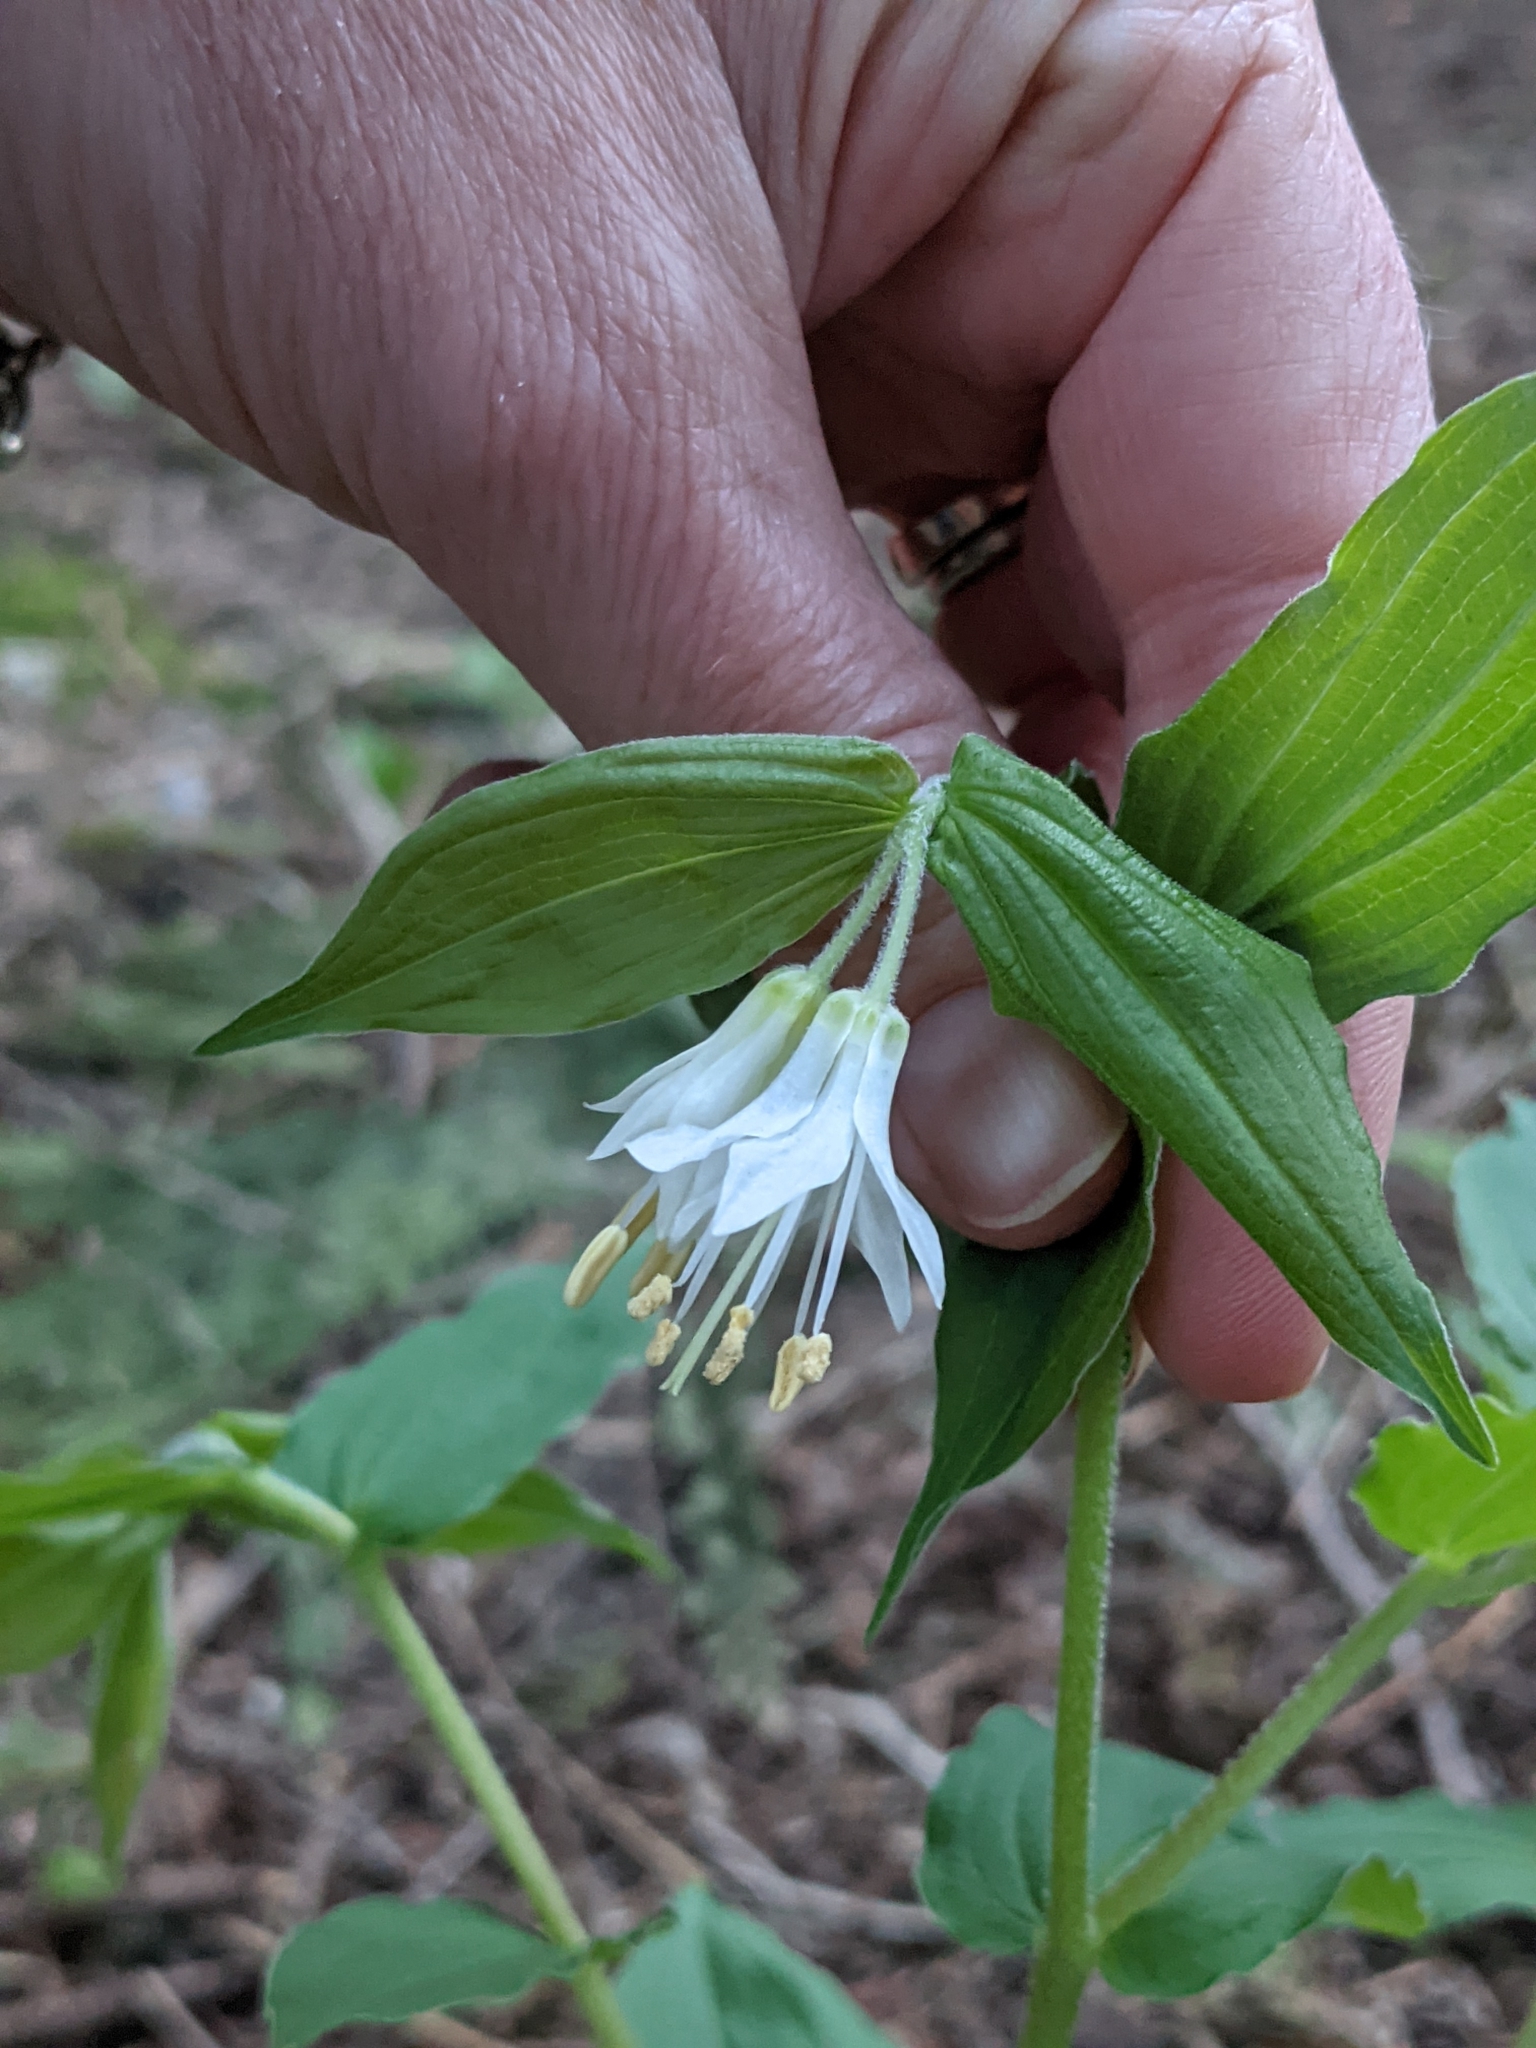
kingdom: Plantae
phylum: Tracheophyta
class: Liliopsida
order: Liliales
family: Liliaceae
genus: Prosartes
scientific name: Prosartes hookeri
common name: Fairy-bells
